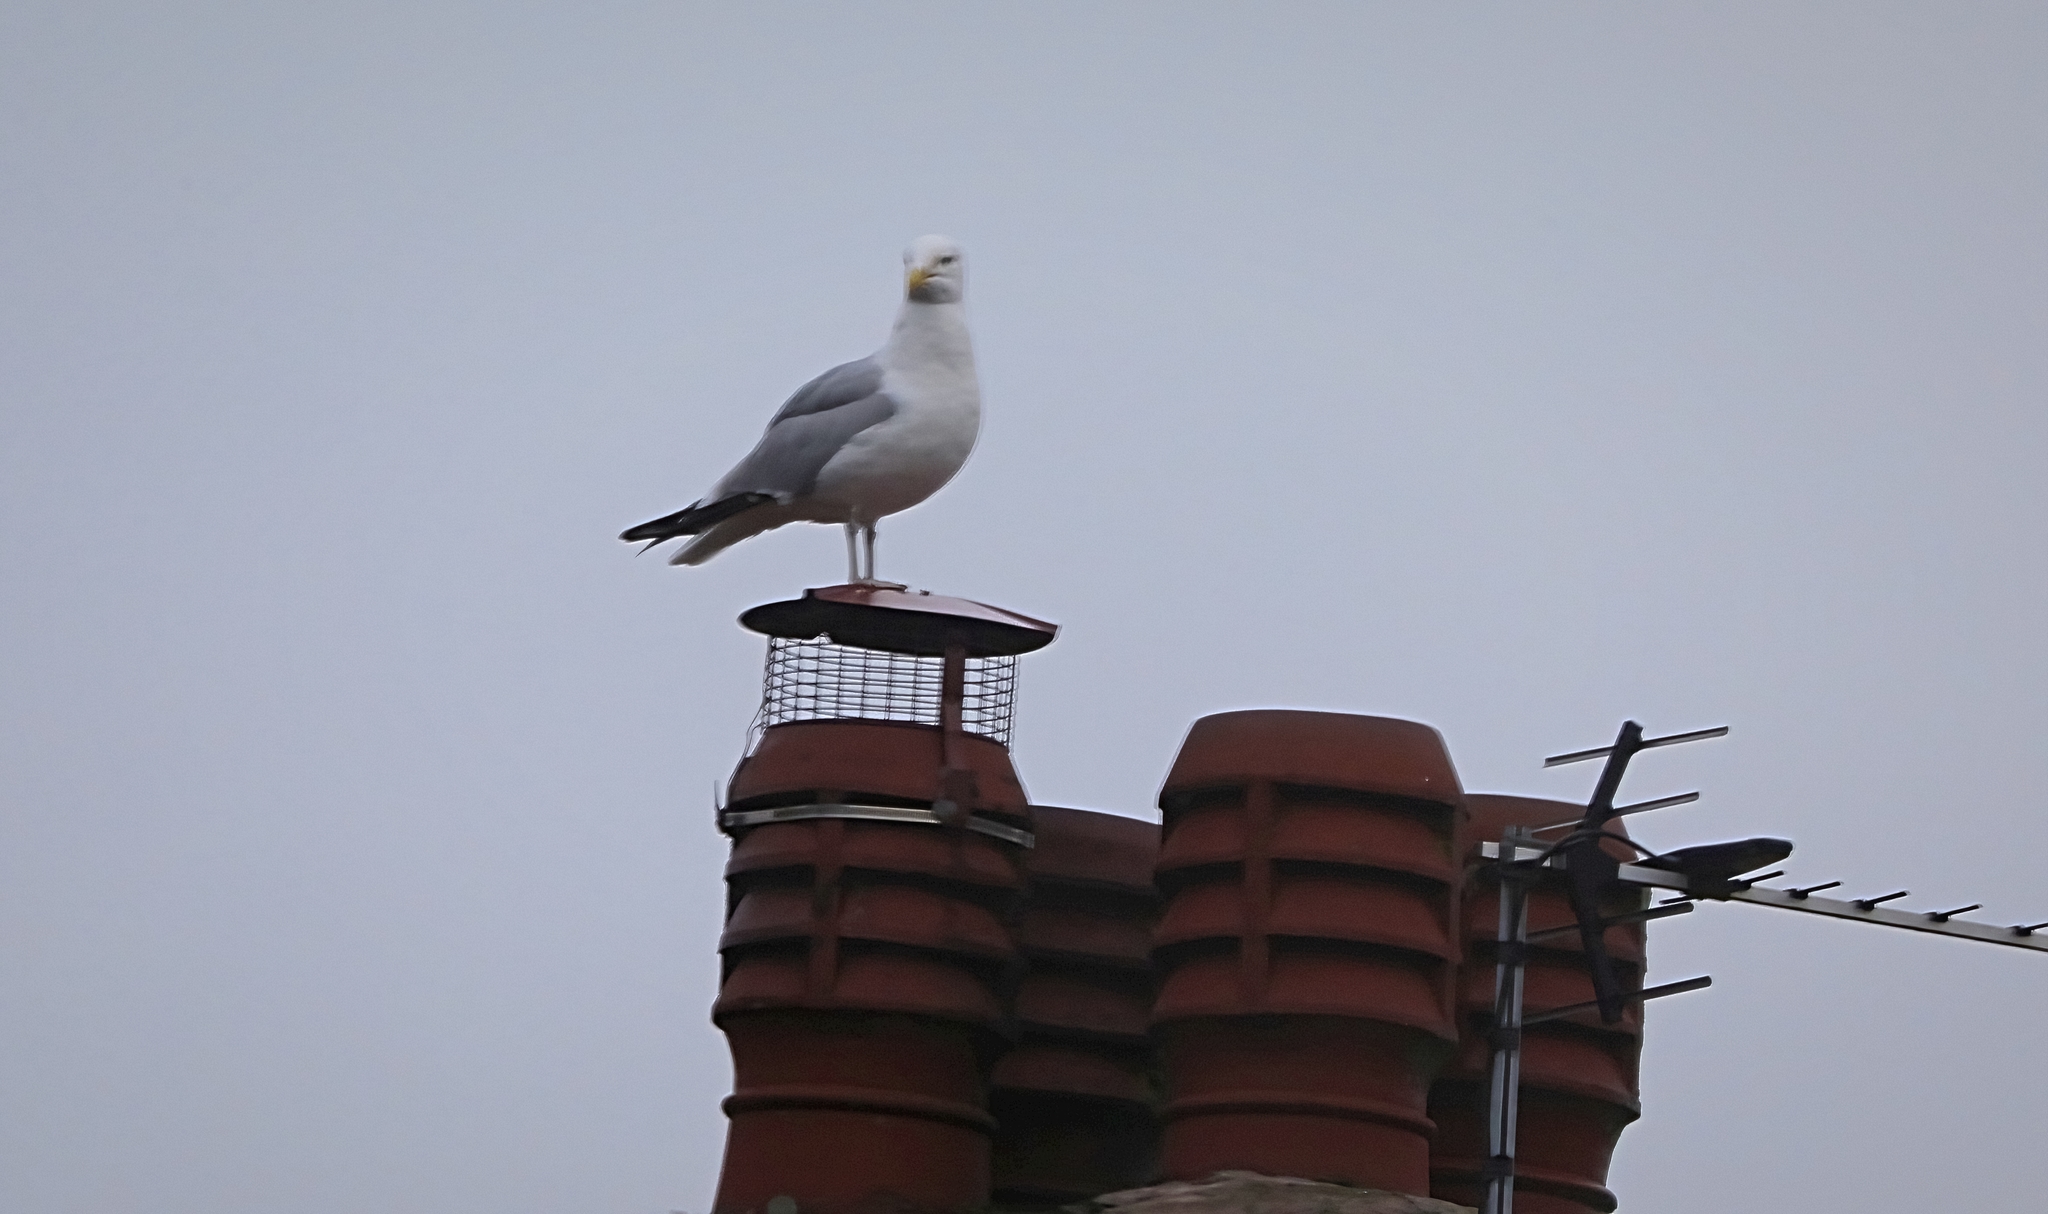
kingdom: Animalia
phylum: Chordata
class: Aves
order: Charadriiformes
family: Laridae
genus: Larus
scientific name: Larus argentatus
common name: Herring gull
